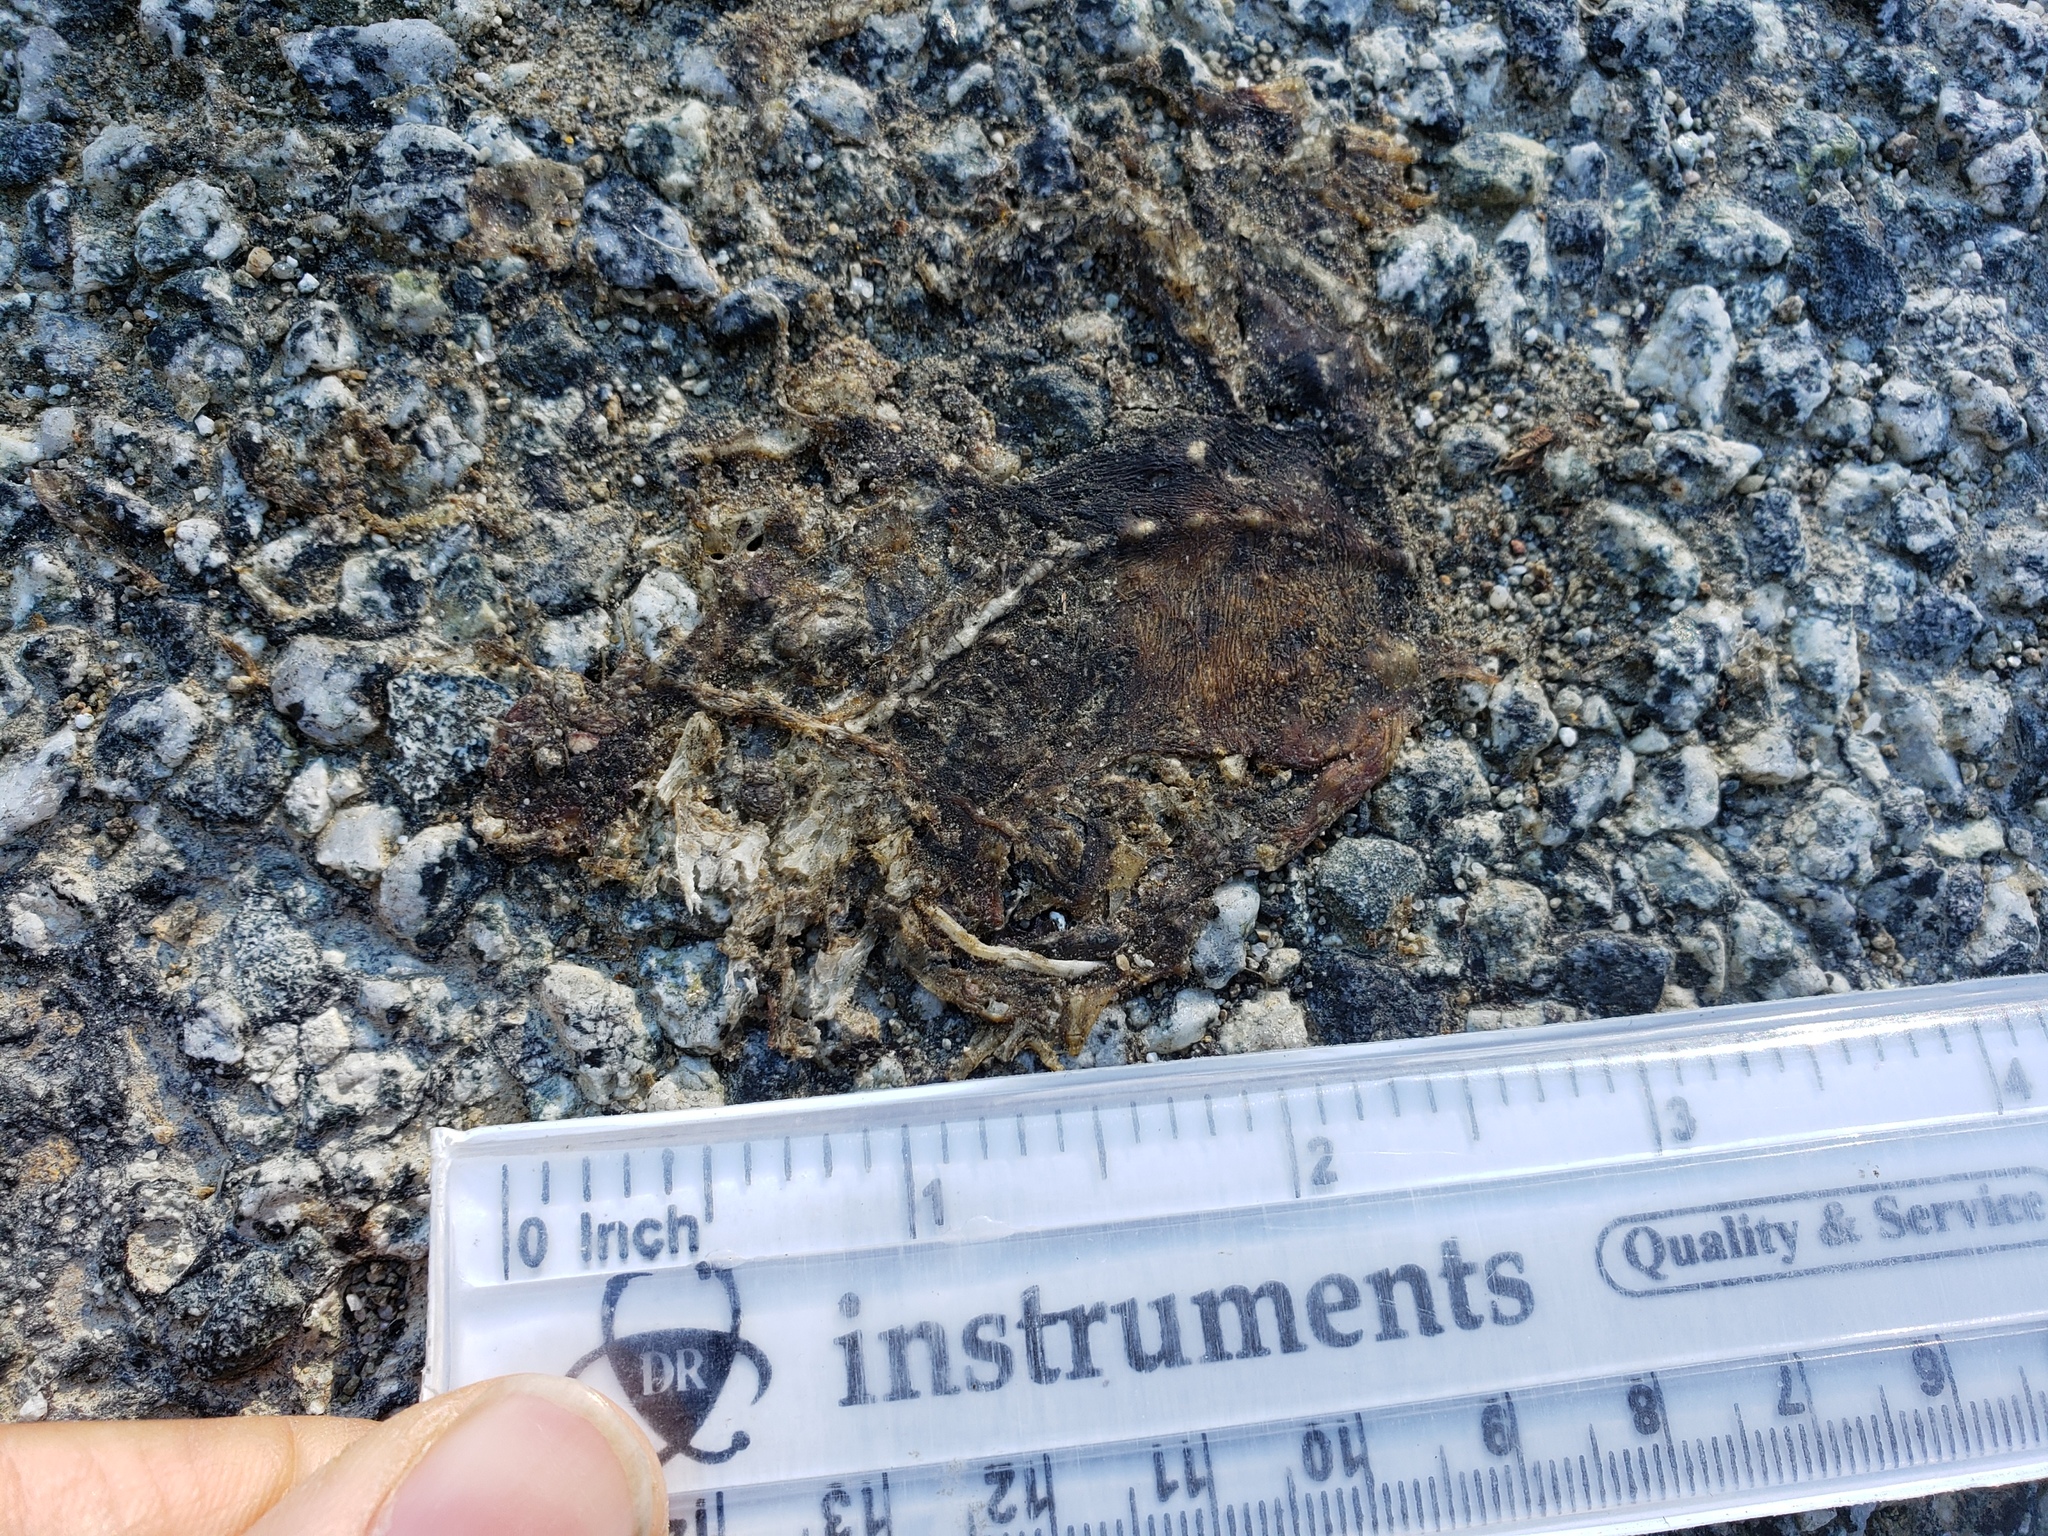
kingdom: Animalia
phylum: Chordata
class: Amphibia
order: Caudata
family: Salamandridae
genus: Taricha
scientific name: Taricha
